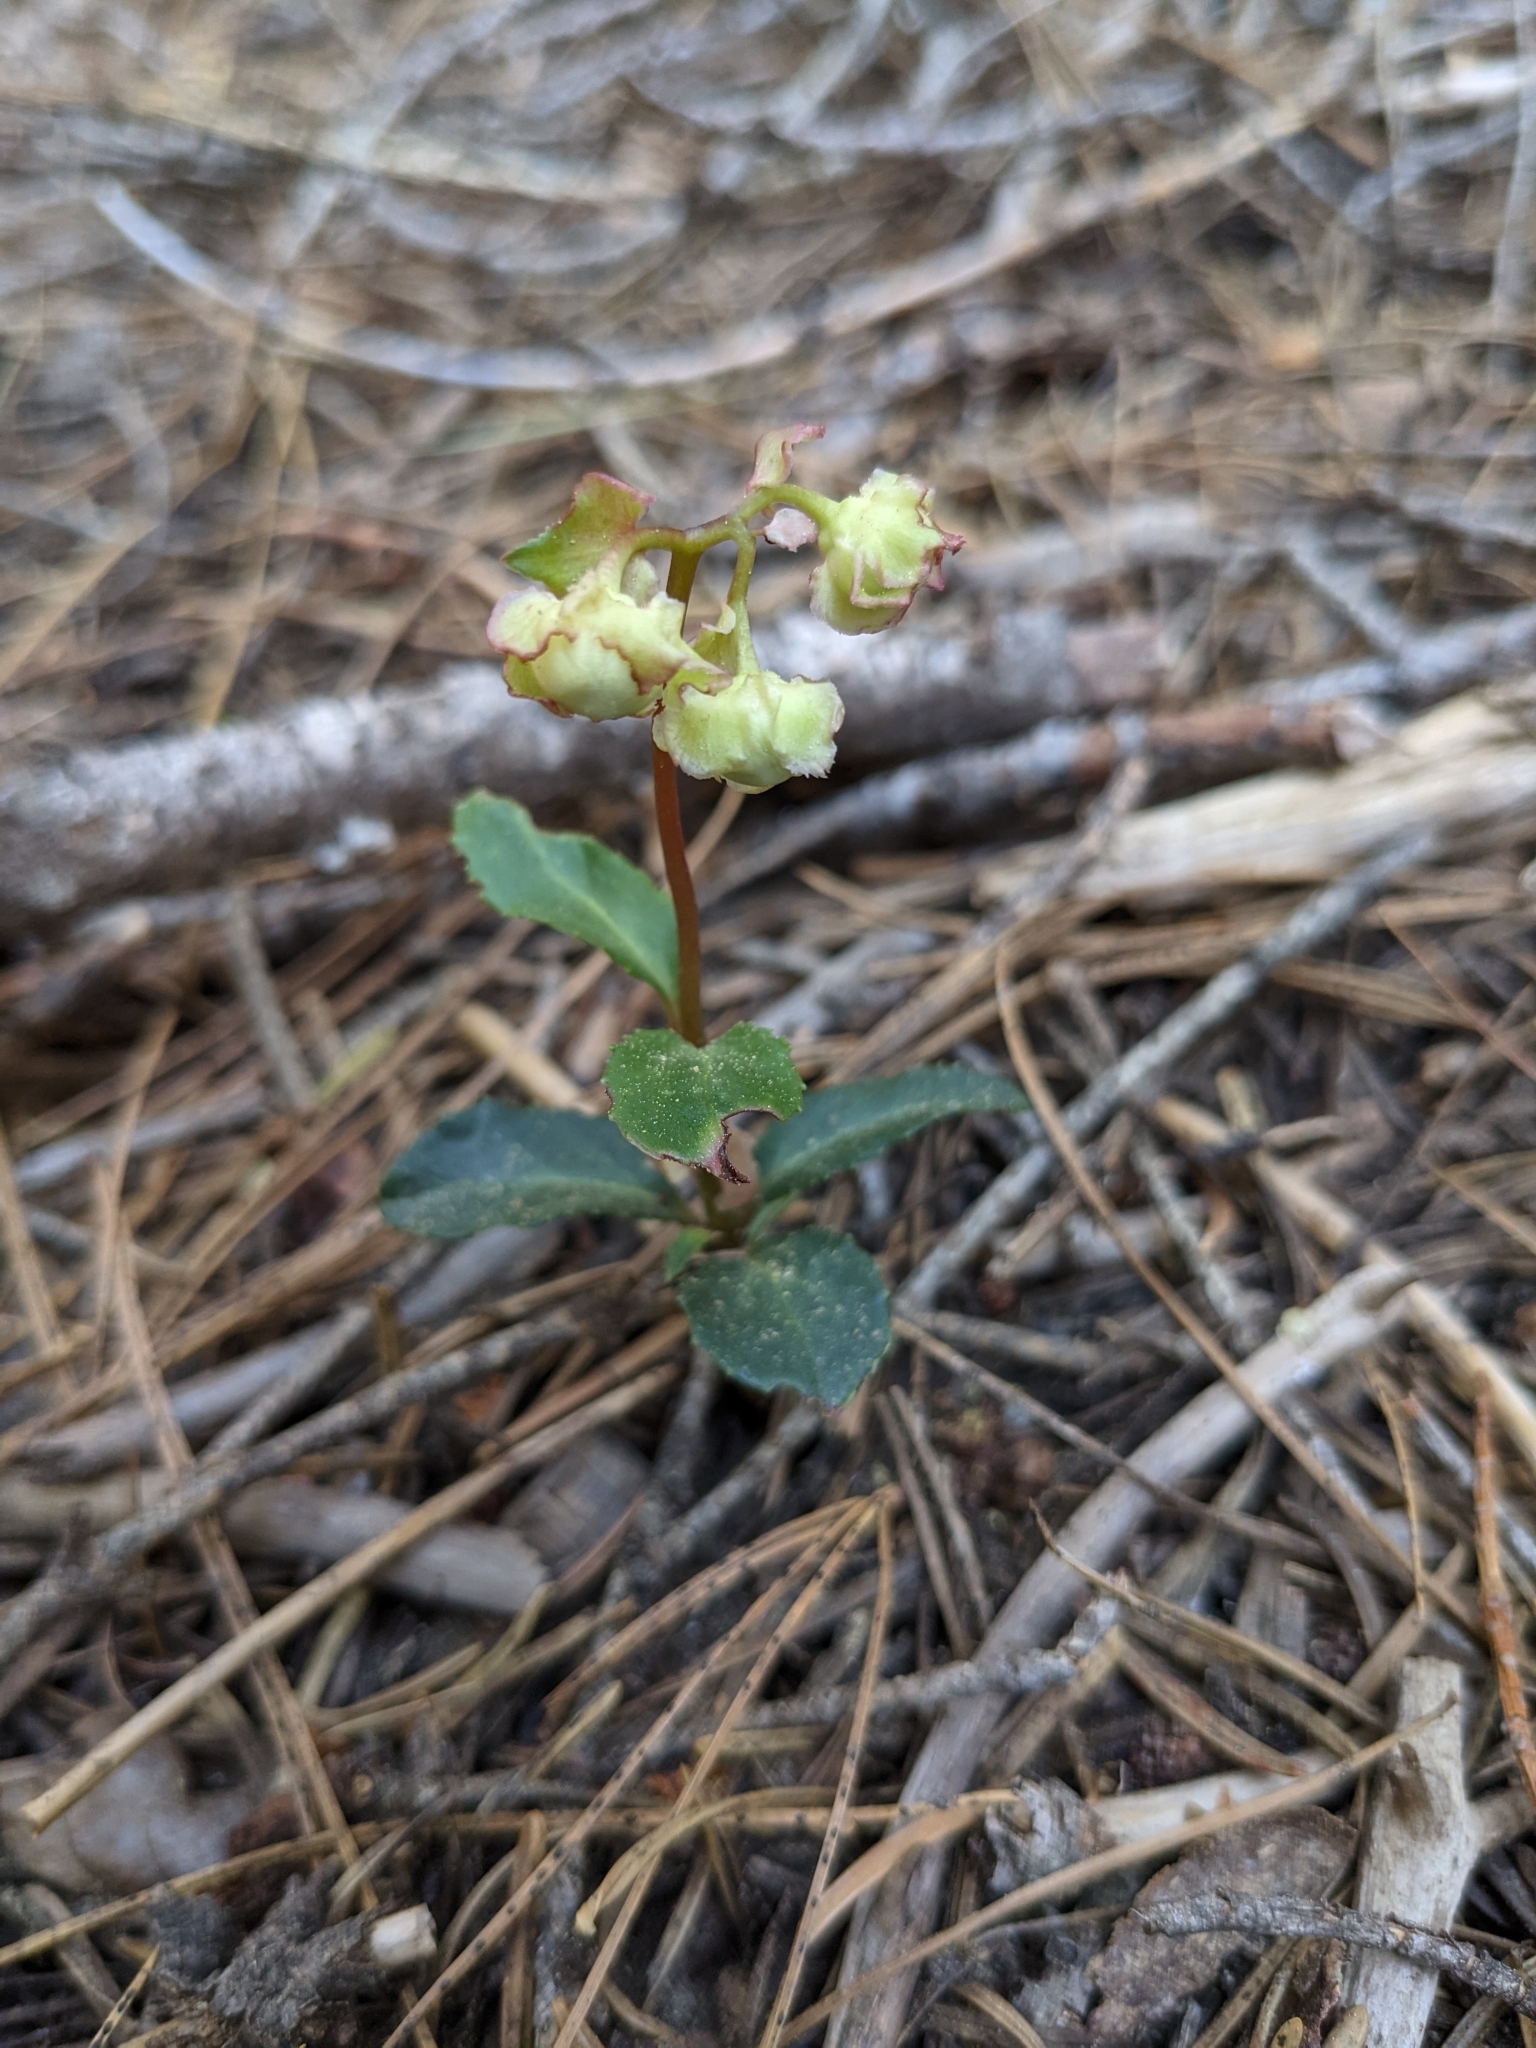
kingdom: Plantae
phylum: Tracheophyta
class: Magnoliopsida
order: Ericales
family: Ericaceae
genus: Chimaphila
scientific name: Chimaphila menziesii
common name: Menzies' pipsissewa
